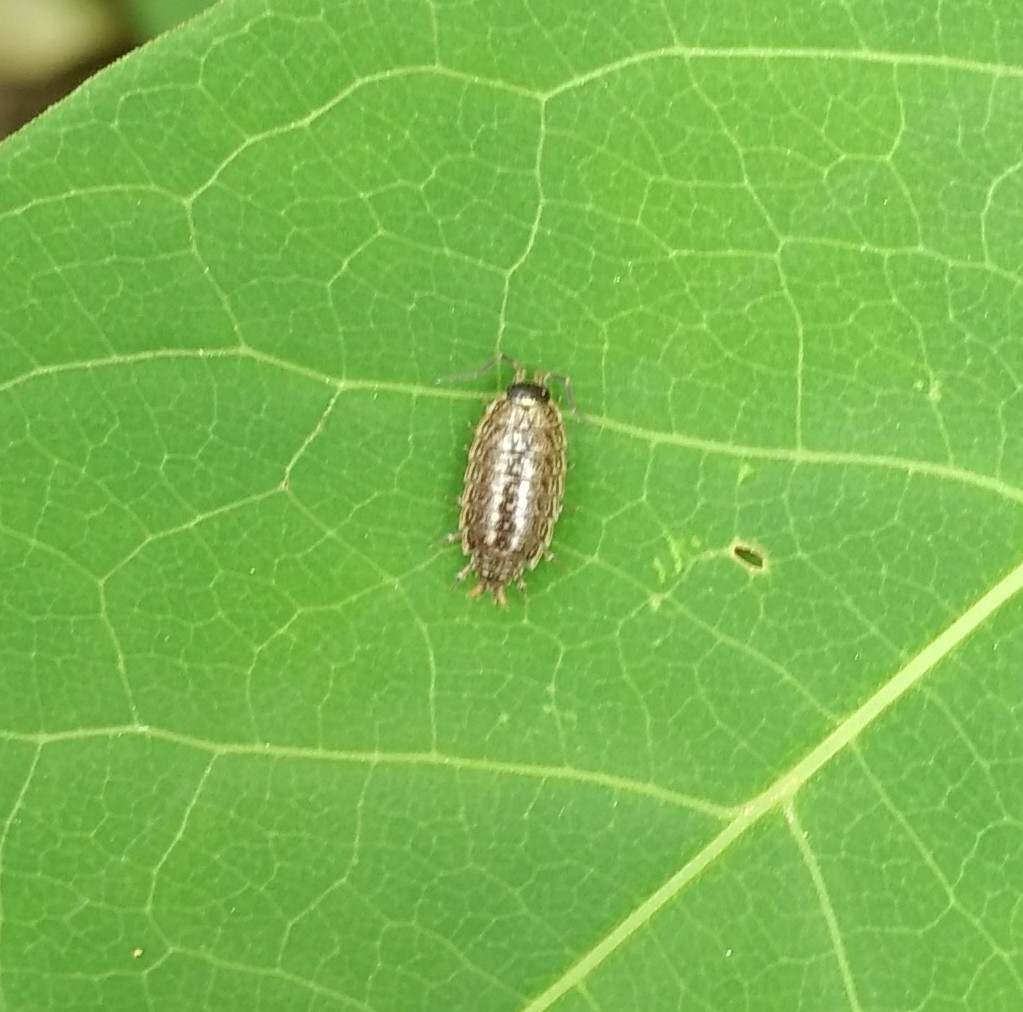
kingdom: Animalia
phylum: Arthropoda
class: Malacostraca
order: Isopoda
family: Philosciidae
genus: Philoscia
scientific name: Philoscia muscorum
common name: Common striped woodlouse
